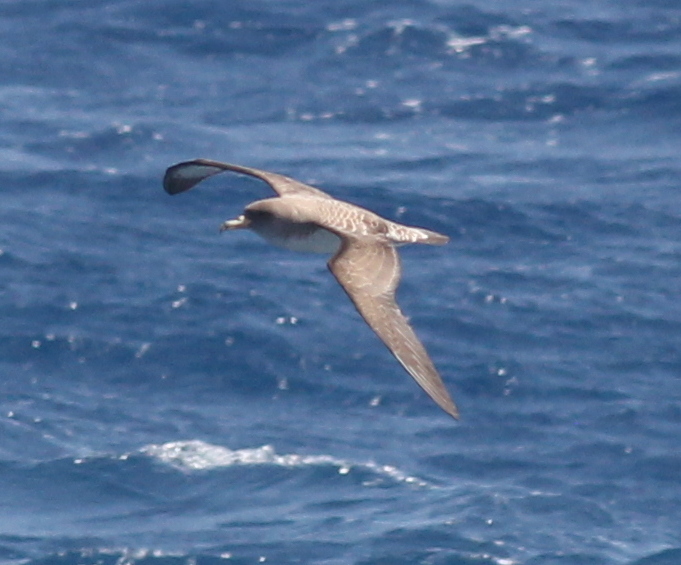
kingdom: Animalia
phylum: Chordata
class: Aves
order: Procellariiformes
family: Procellariidae
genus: Calonectris
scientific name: Calonectris diomedea
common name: Cory's shearwater
